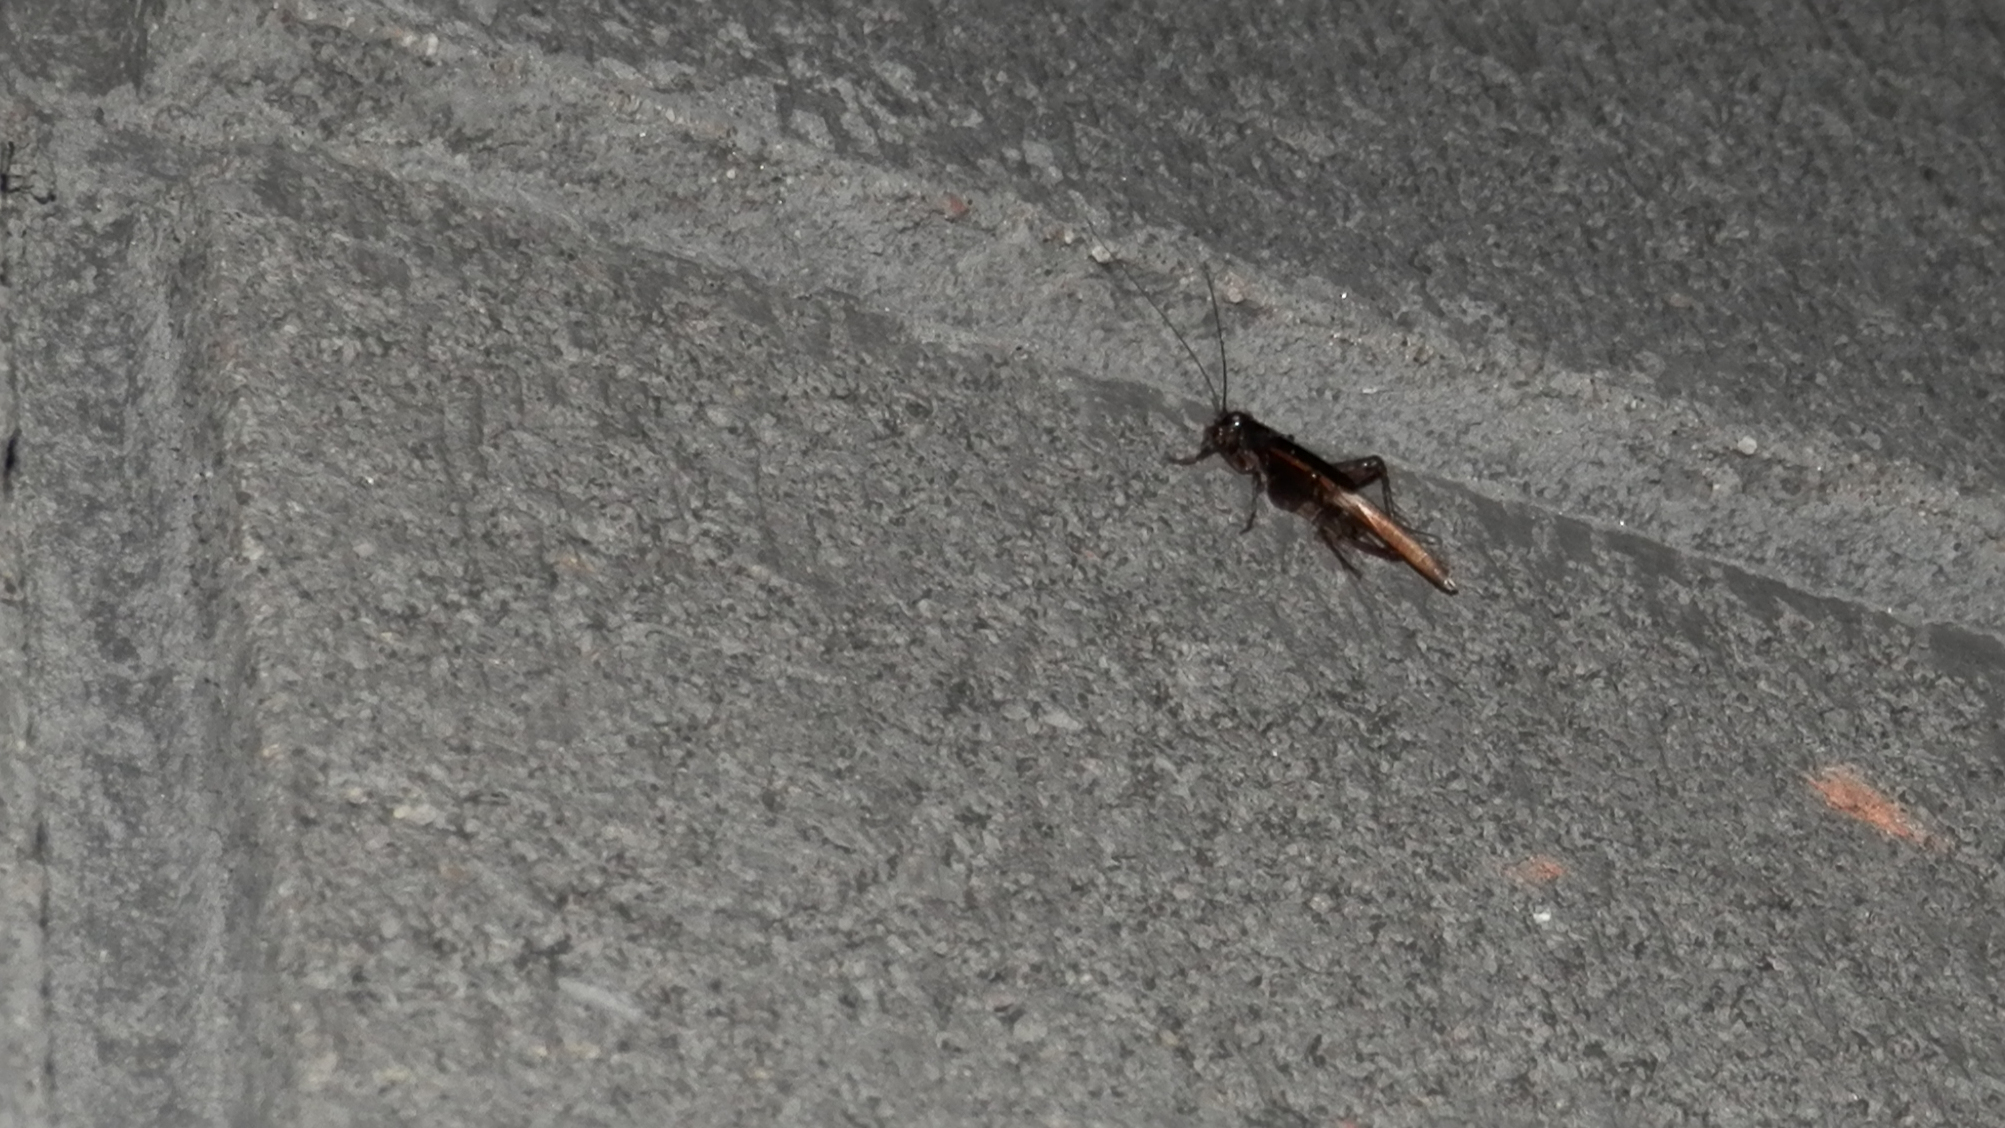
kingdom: Animalia
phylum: Arthropoda
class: Insecta
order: Orthoptera
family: Trigonidiidae
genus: Eunemobius
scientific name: Eunemobius carolinus
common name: Carolina ground cricket
